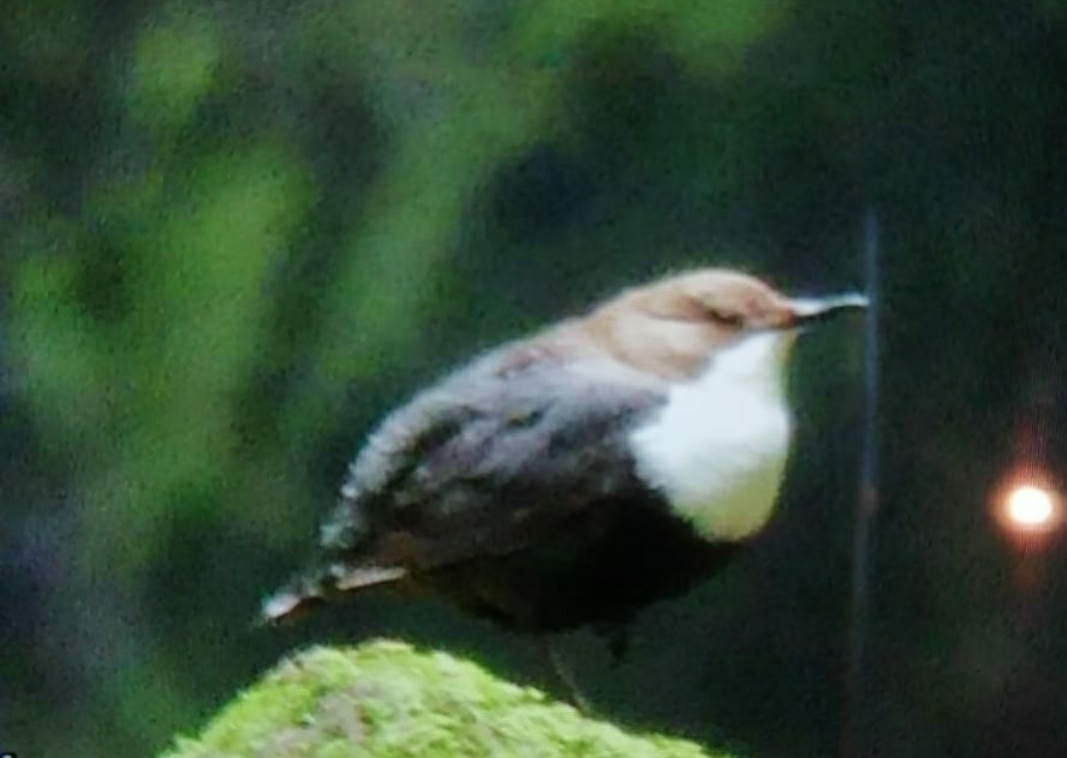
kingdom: Animalia
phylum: Chordata
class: Aves
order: Passeriformes
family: Cinclidae
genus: Cinclus
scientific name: Cinclus cinclus
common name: White-throated dipper
